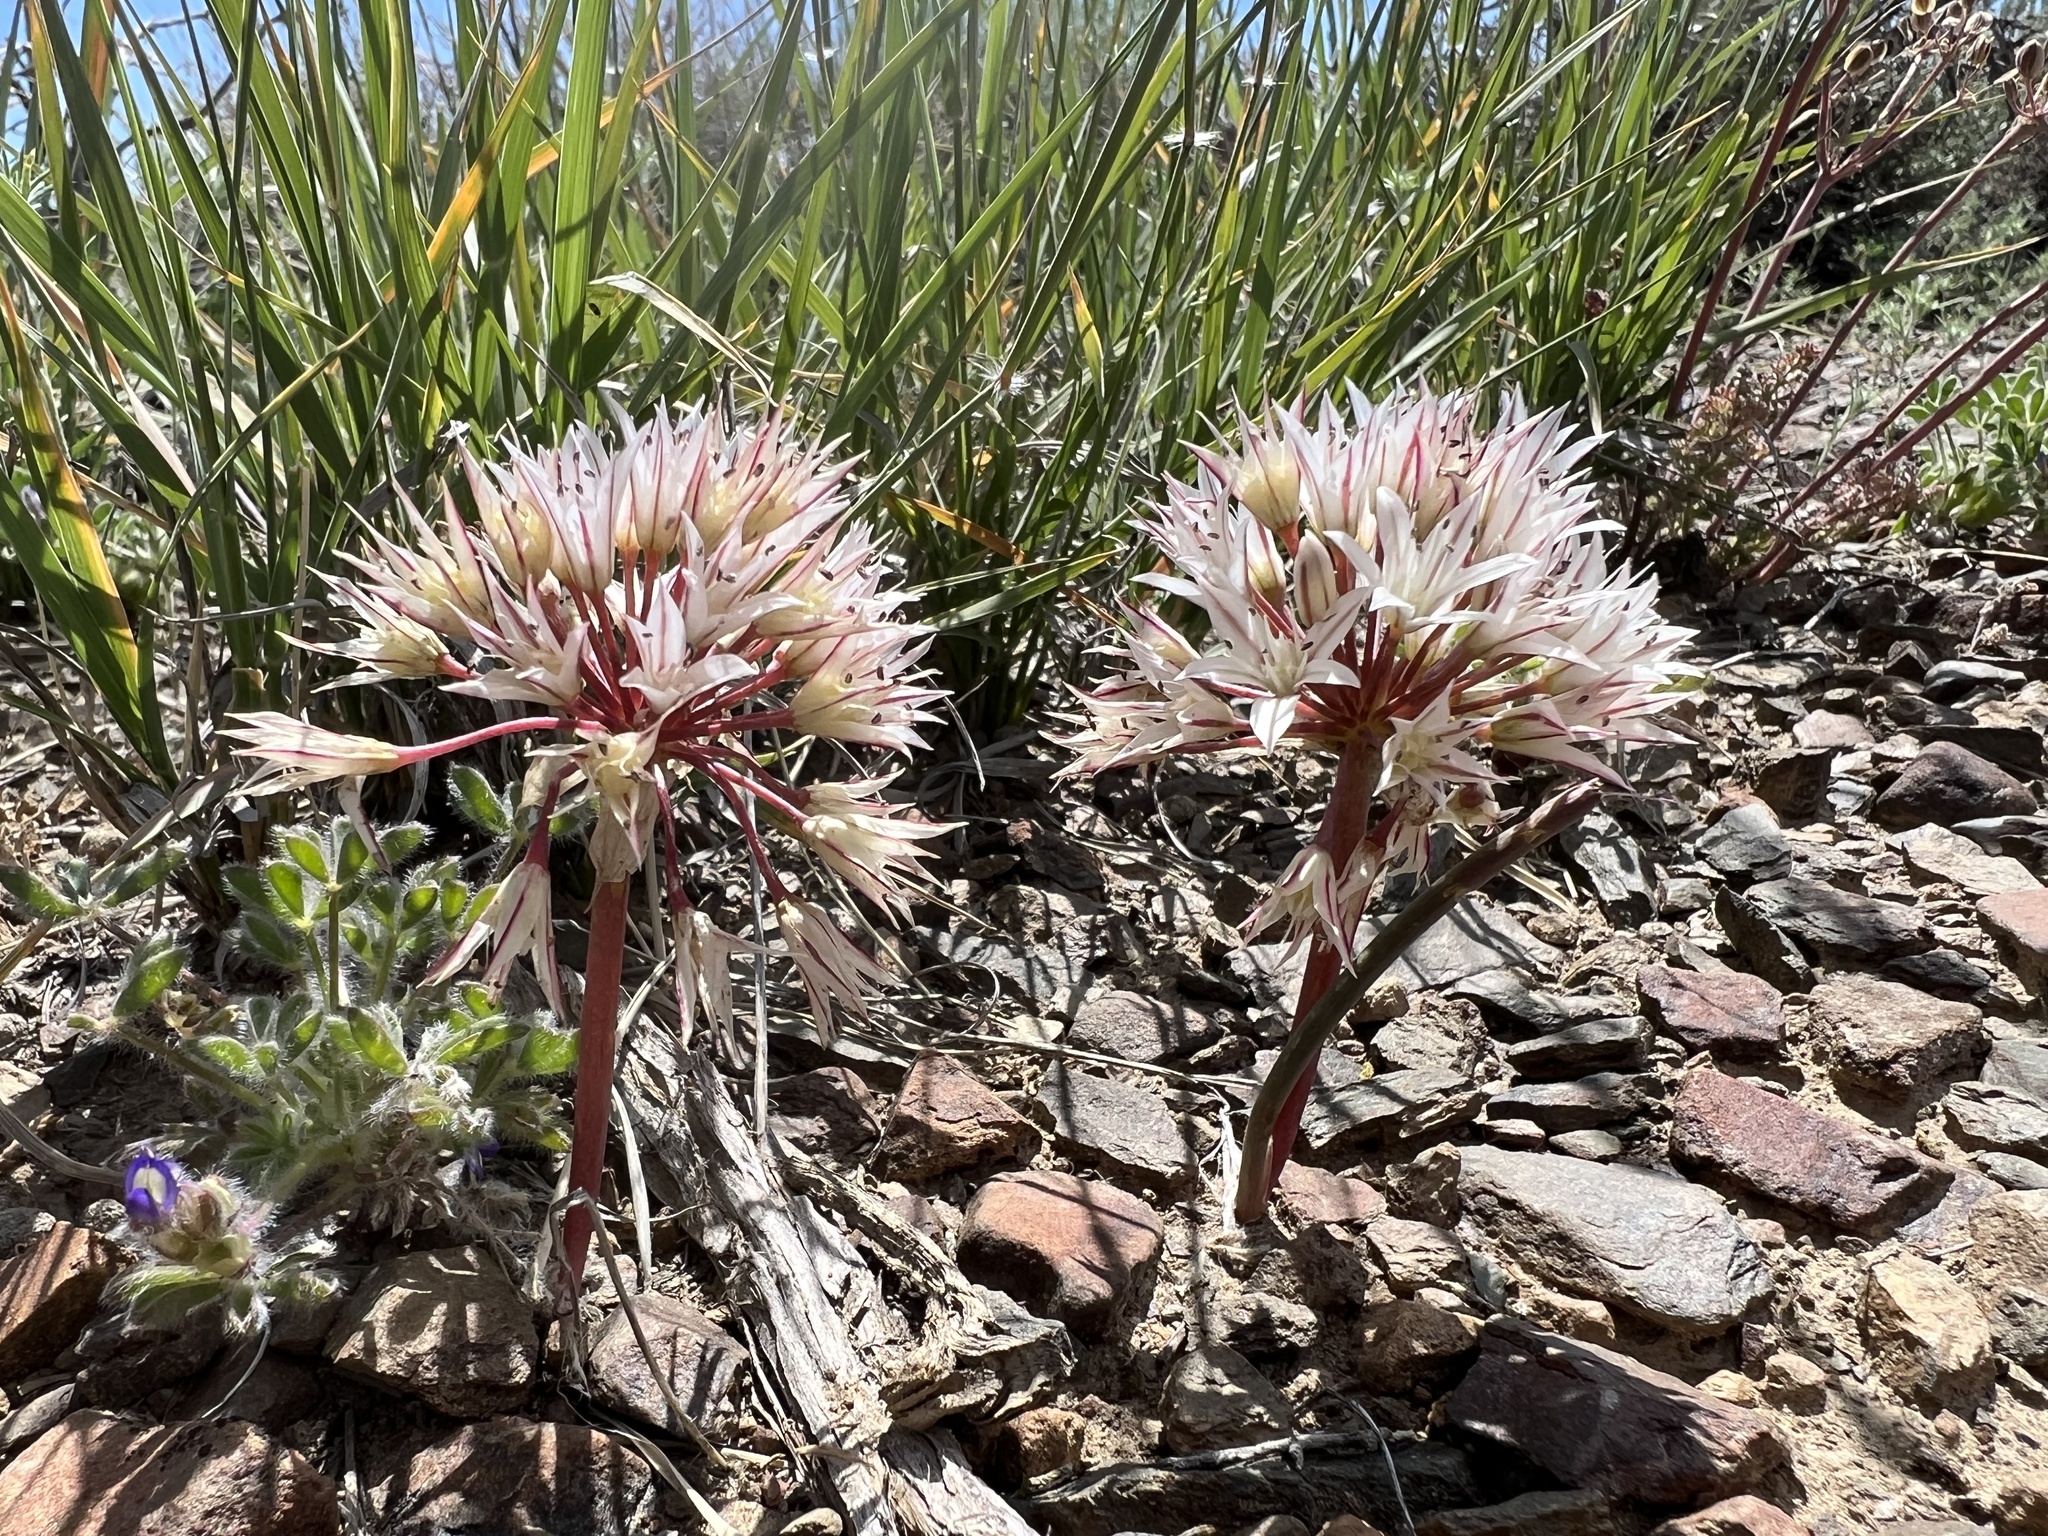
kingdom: Plantae
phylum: Tracheophyta
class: Liliopsida
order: Asparagales
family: Amaryllidaceae
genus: Allium
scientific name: Allium atrorubens
